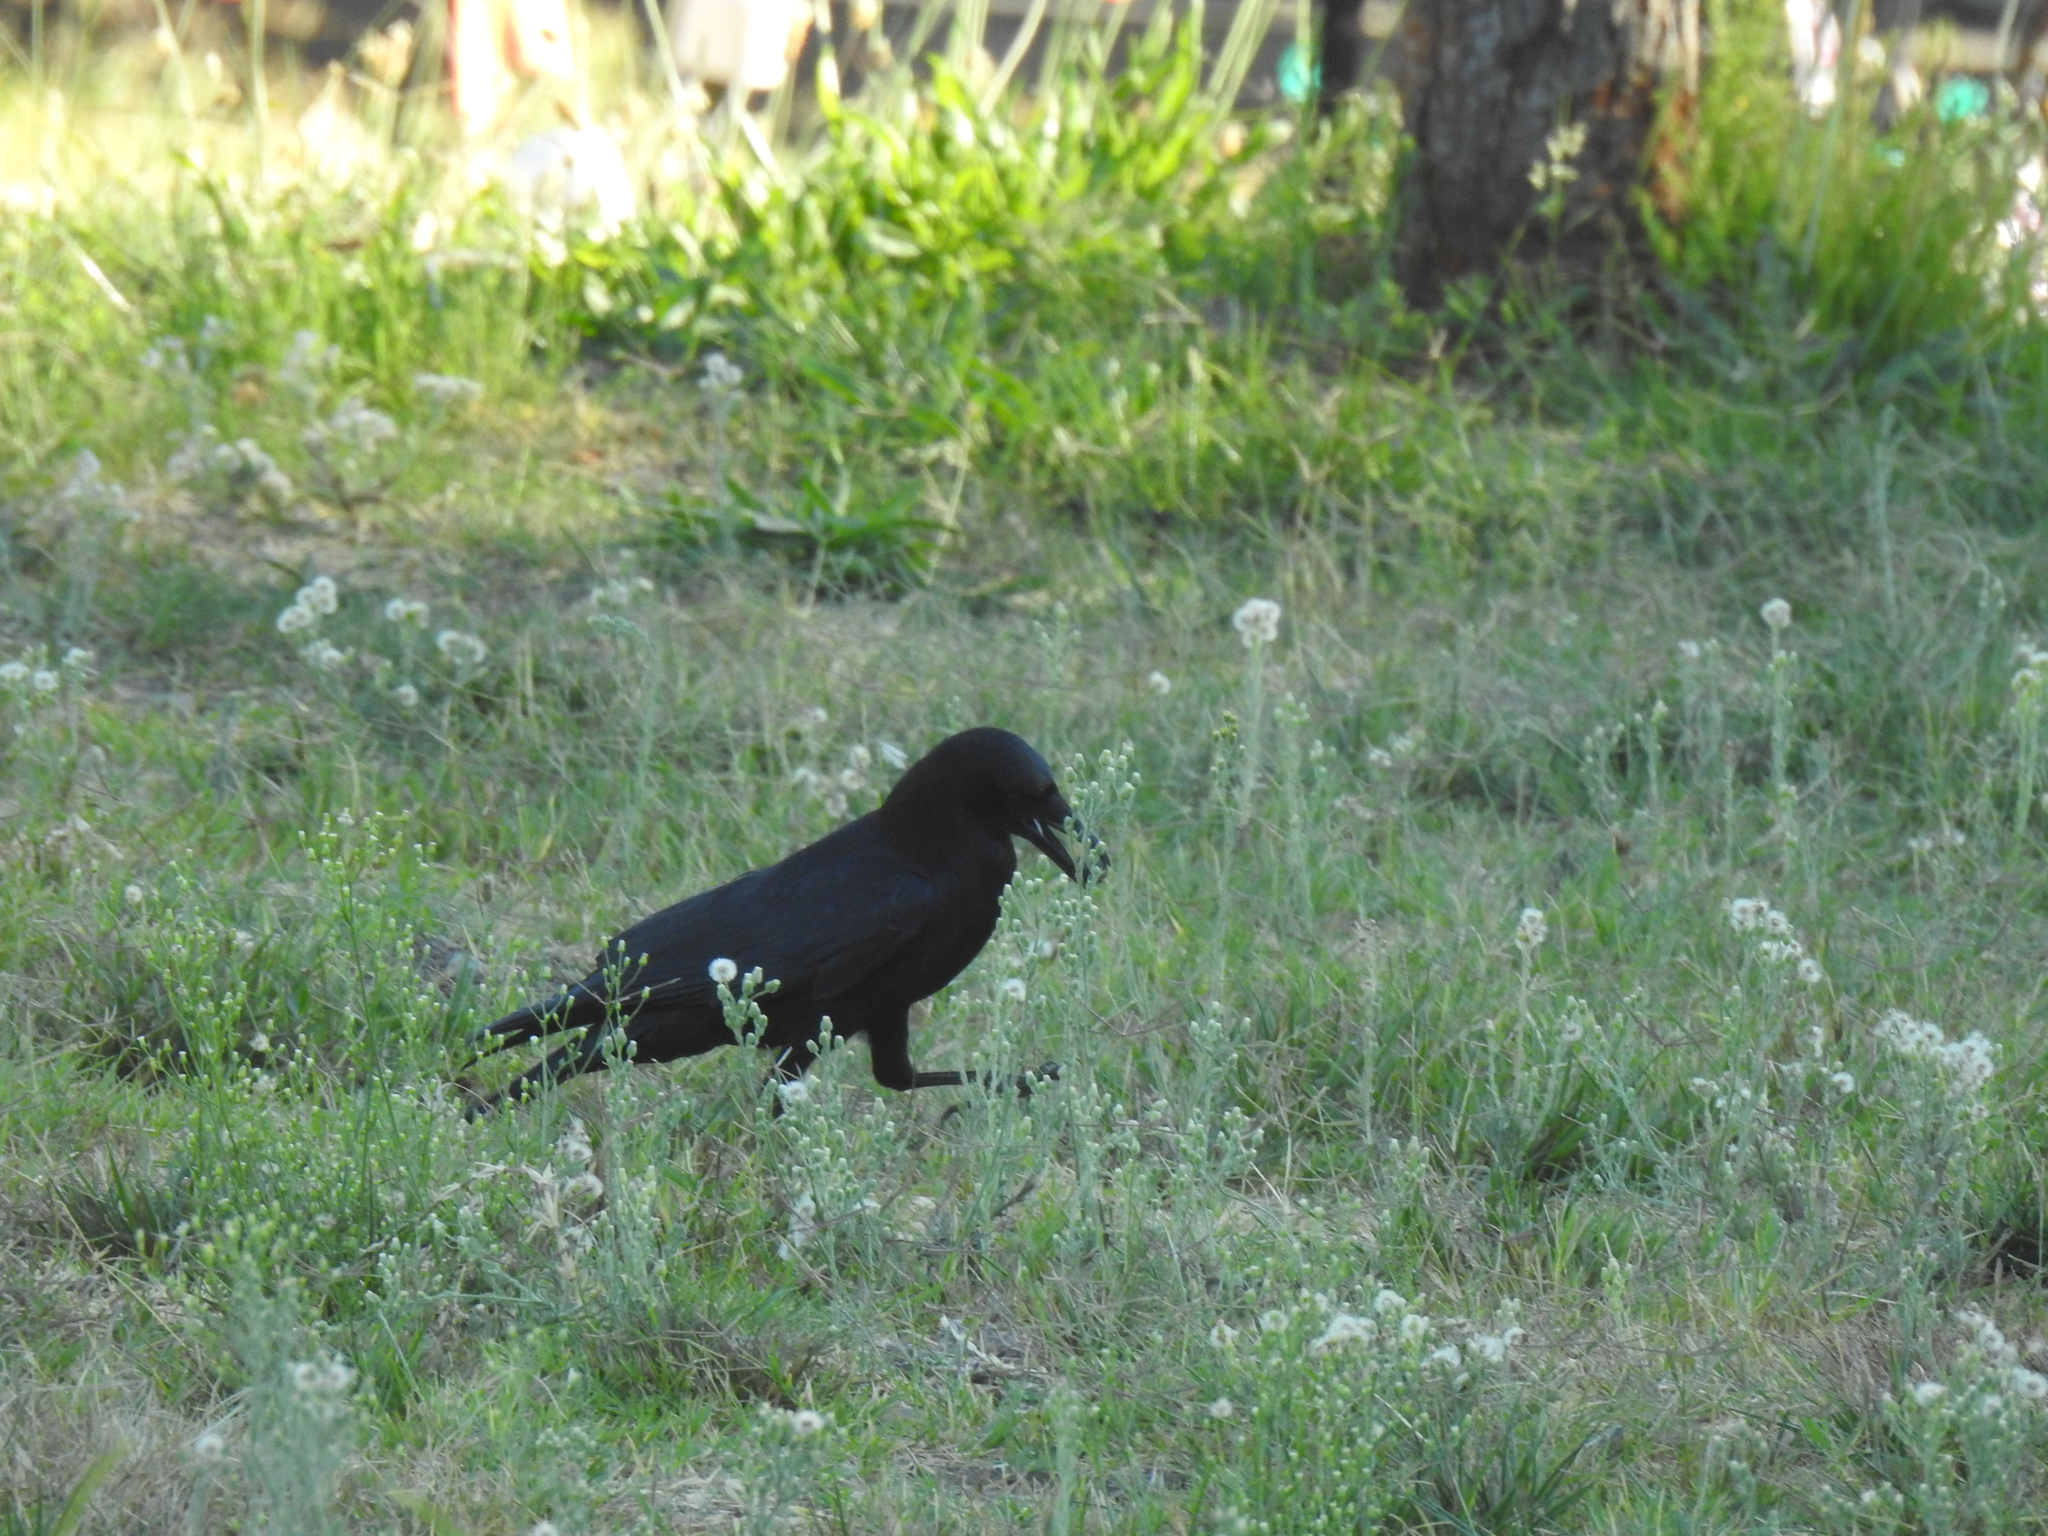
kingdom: Animalia
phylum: Chordata
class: Aves
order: Passeriformes
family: Corvidae
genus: Corvus
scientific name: Corvus brachyrhynchos
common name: American crow
